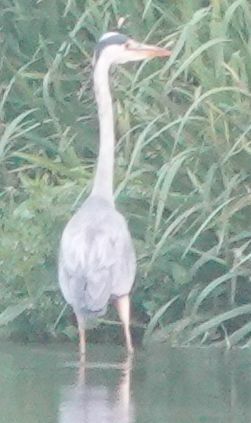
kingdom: Animalia
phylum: Chordata
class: Aves
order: Pelecaniformes
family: Ardeidae
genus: Ardea
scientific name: Ardea cinerea
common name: Grey heron
